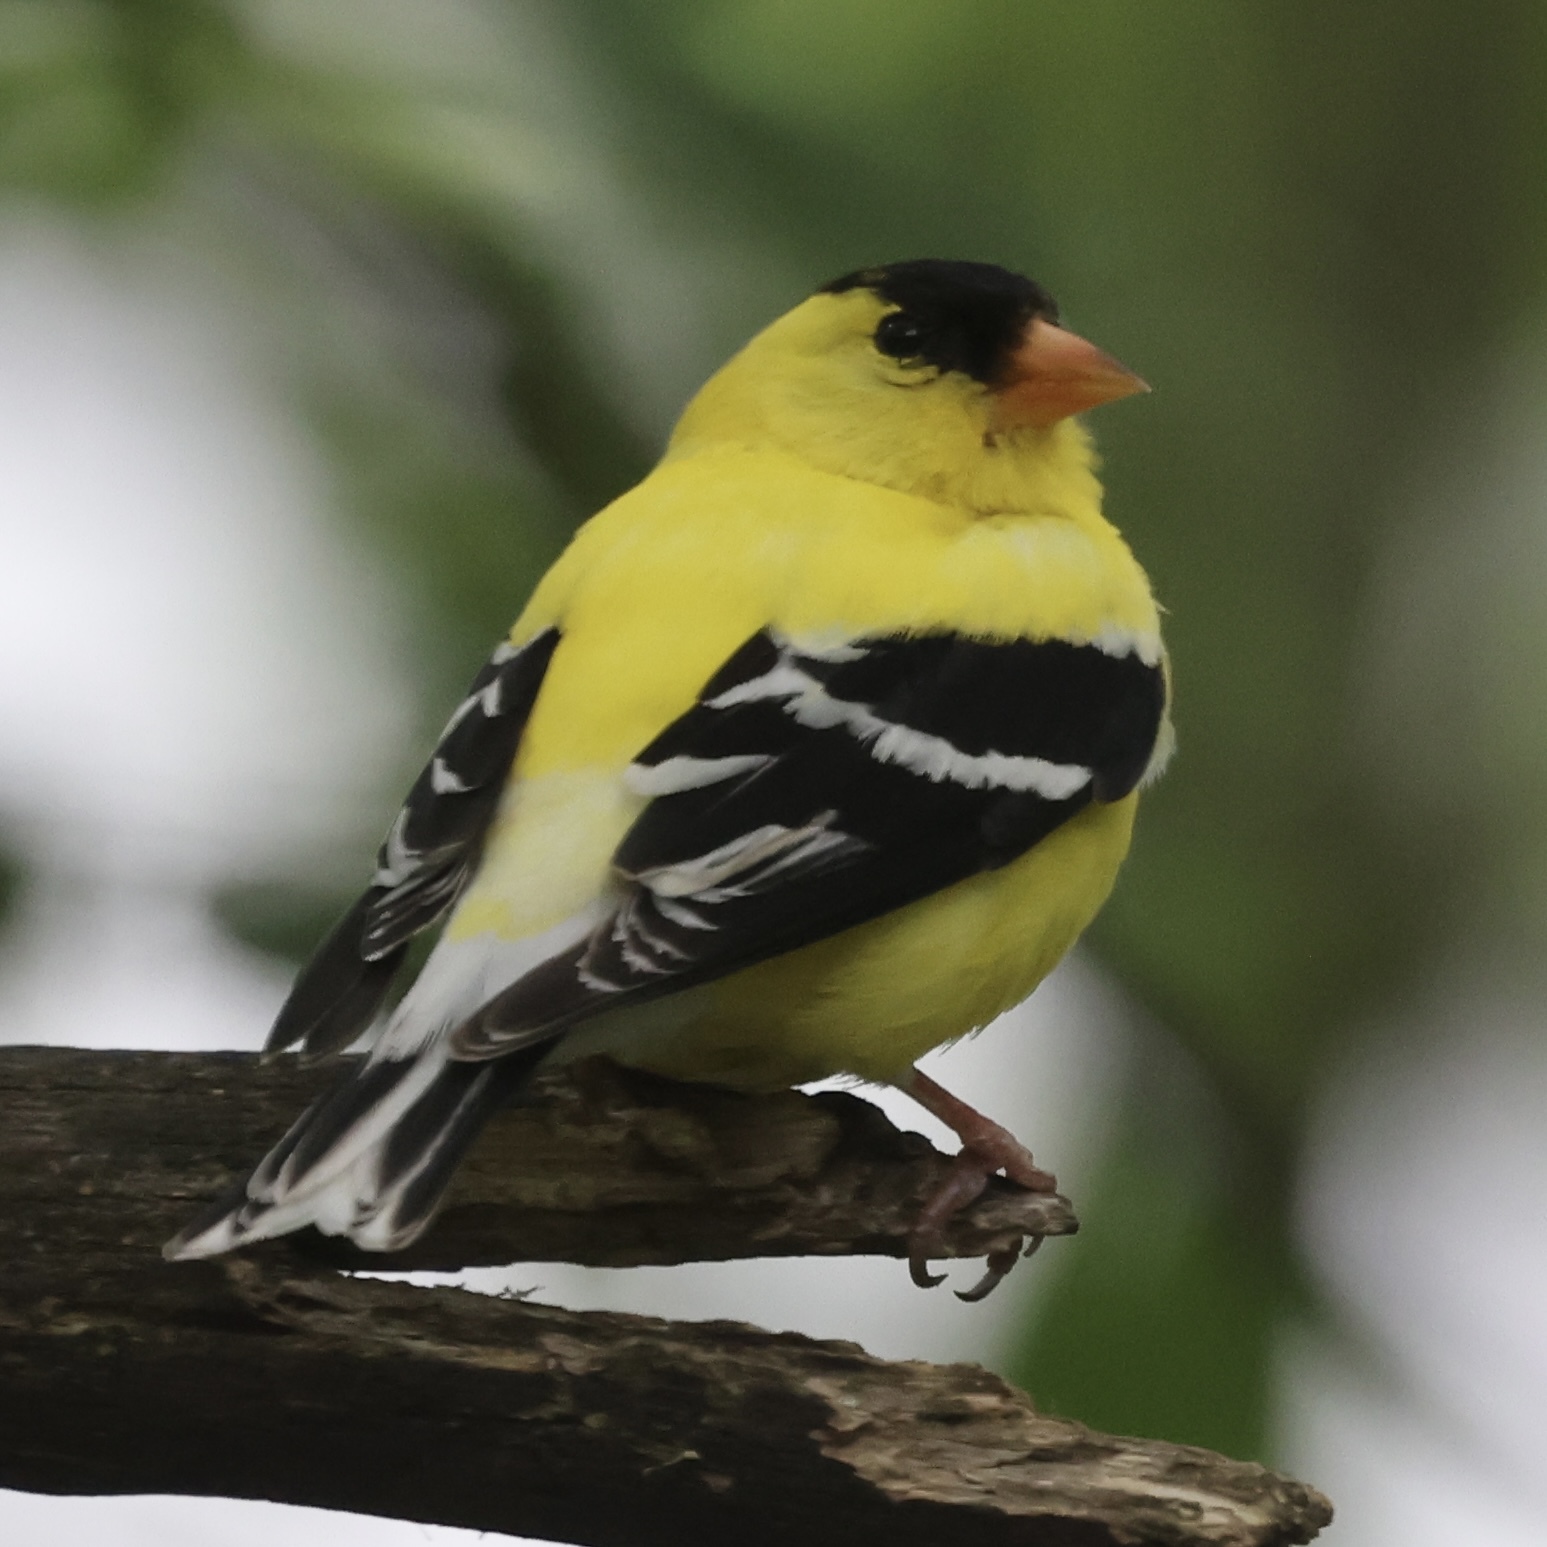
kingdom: Animalia
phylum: Chordata
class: Aves
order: Passeriformes
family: Fringillidae
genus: Spinus
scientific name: Spinus tristis
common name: American goldfinch
